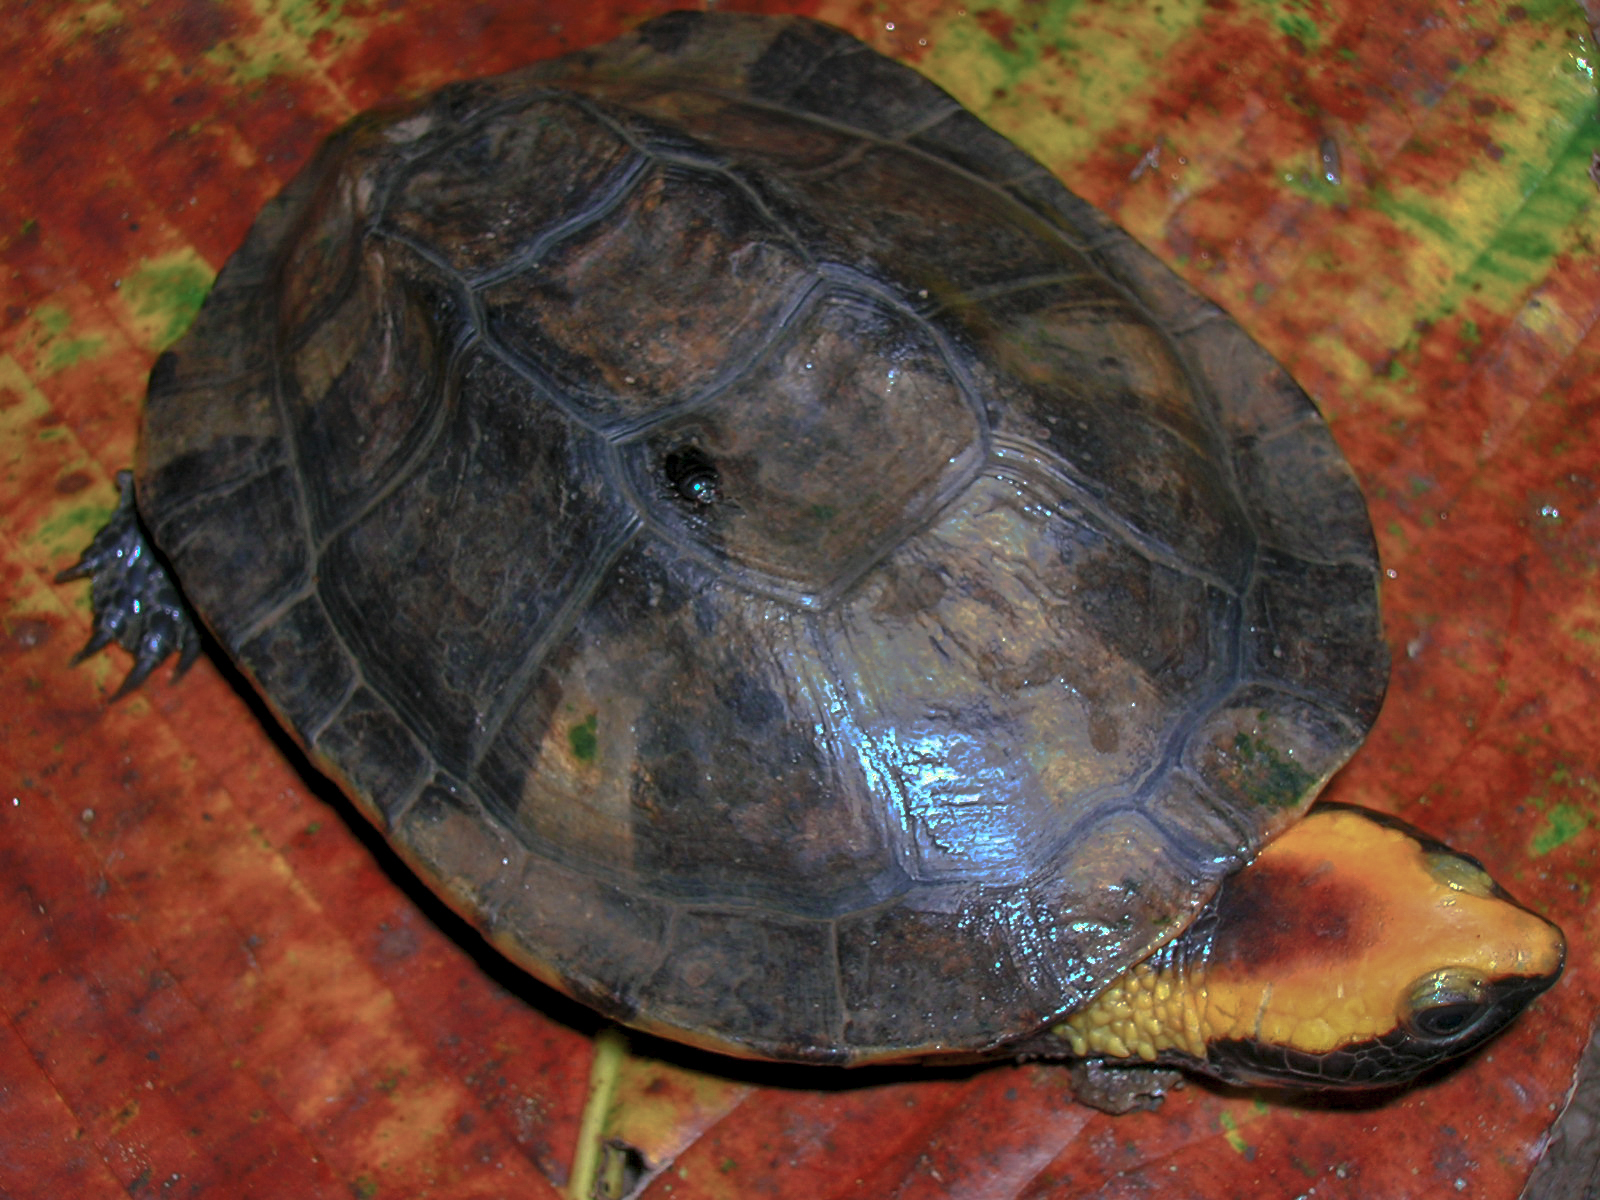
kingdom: Animalia
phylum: Chordata
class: Testudines
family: Chelidae
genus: Platemys
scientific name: Platemys platycephala
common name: Twistneck turtle
